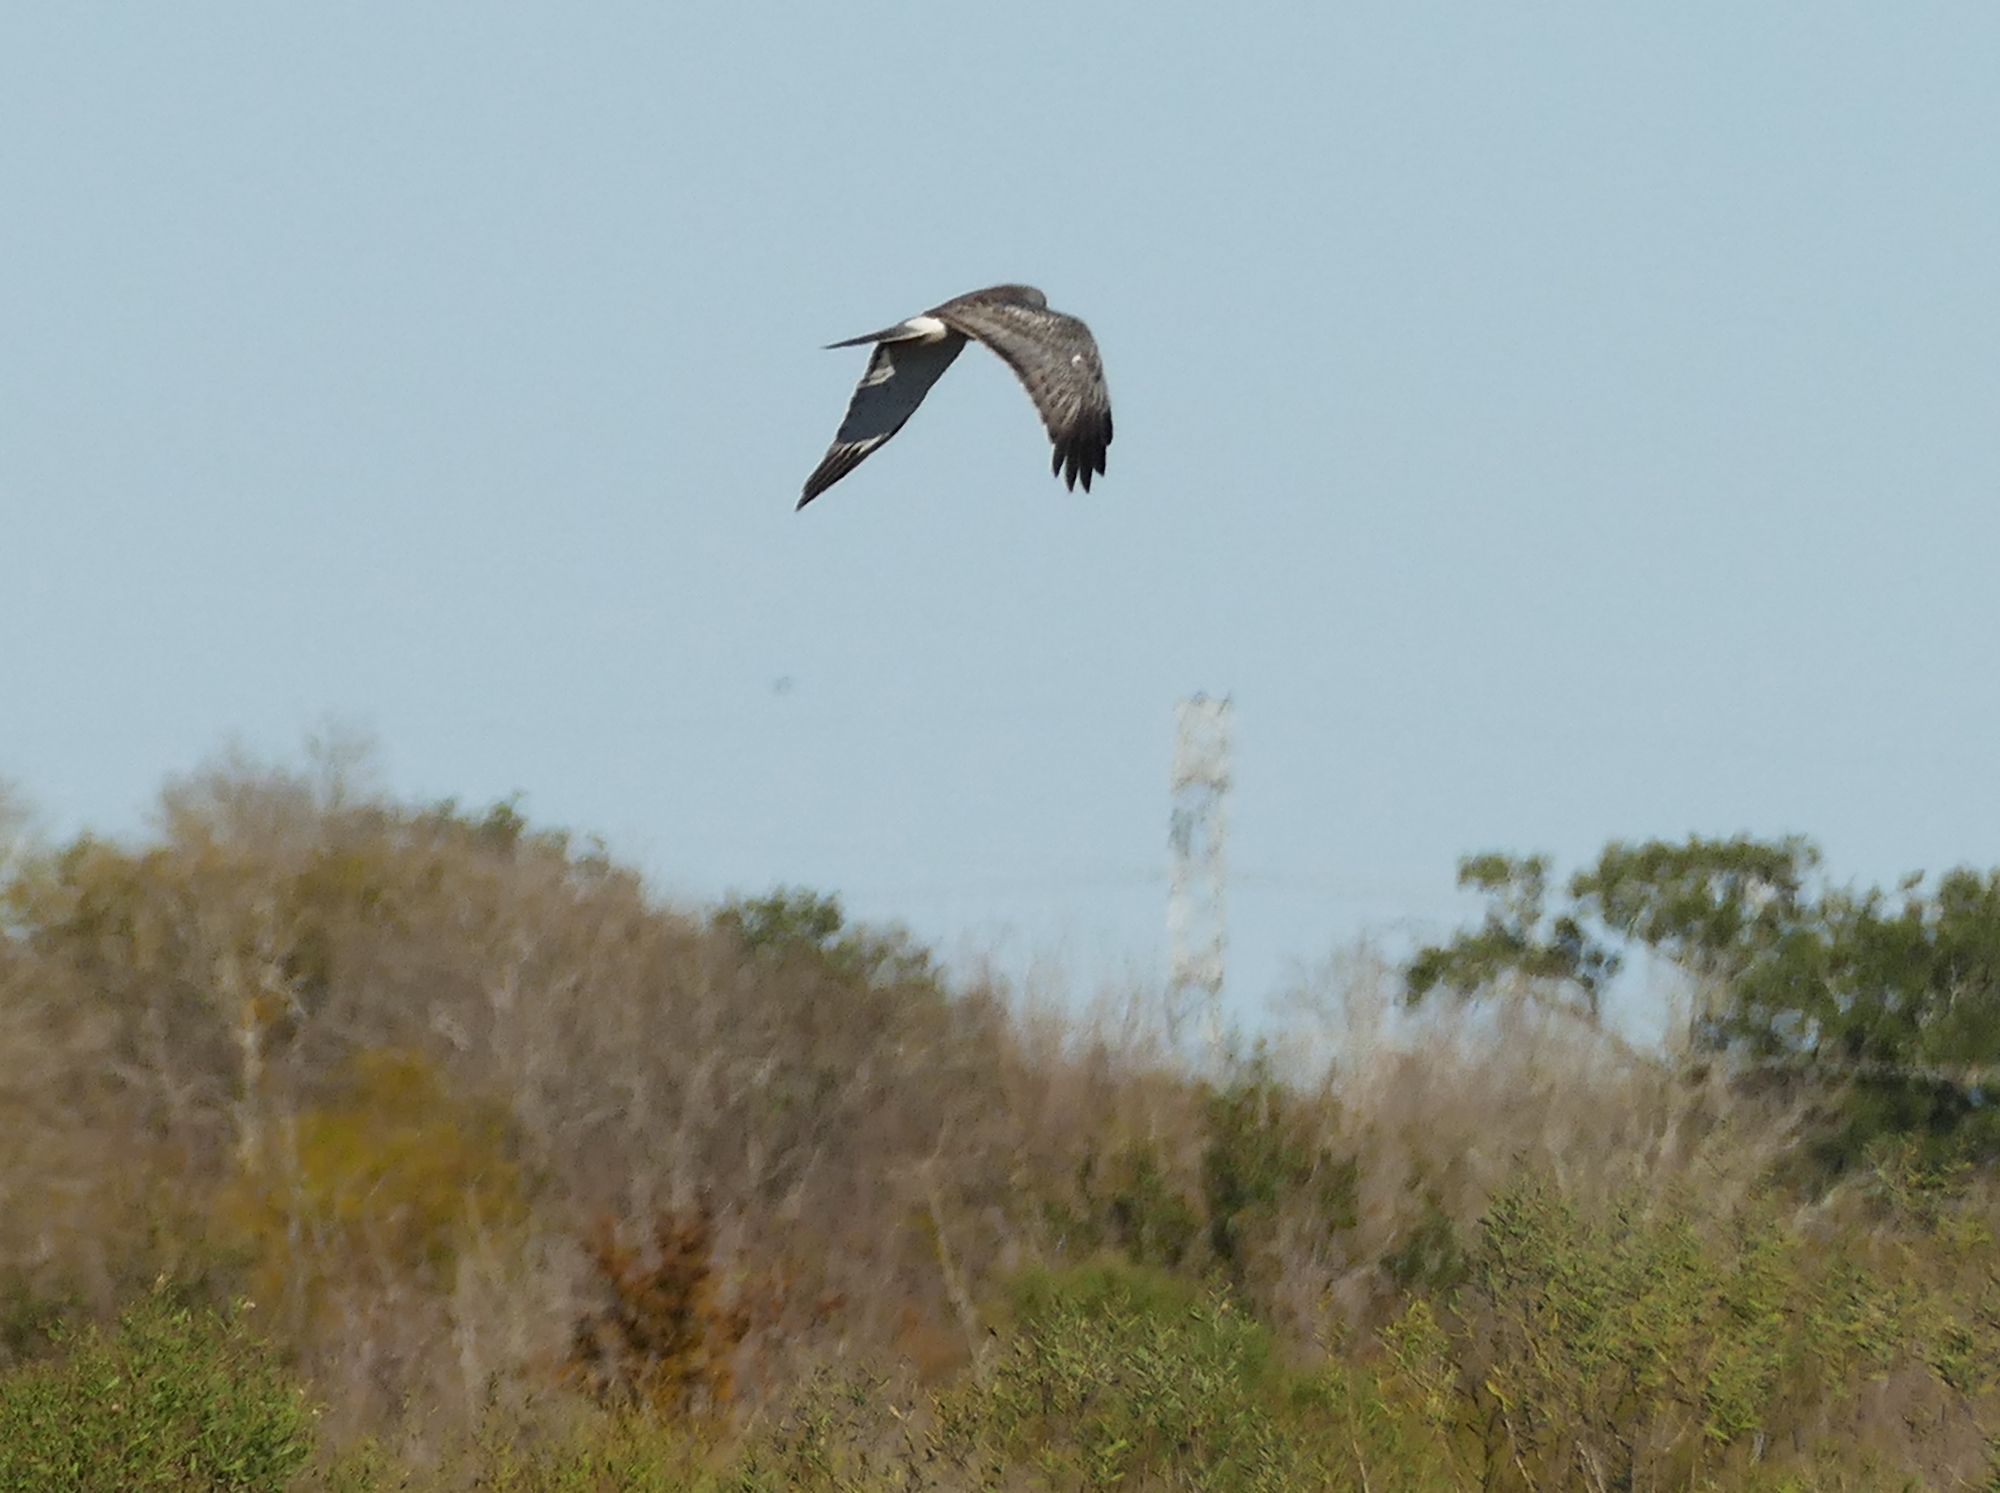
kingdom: Animalia
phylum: Chordata
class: Aves
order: Accipitriformes
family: Accipitridae
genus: Circus
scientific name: Circus cyaneus
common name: Hen harrier
